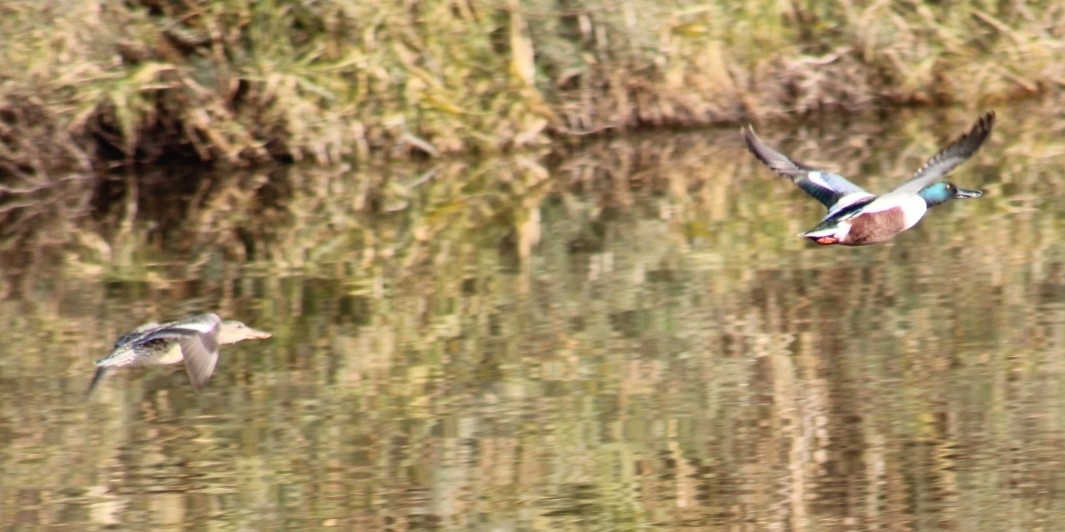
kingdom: Animalia
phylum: Chordata
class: Aves
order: Anseriformes
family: Anatidae
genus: Spatula
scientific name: Spatula clypeata
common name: Northern shoveler
